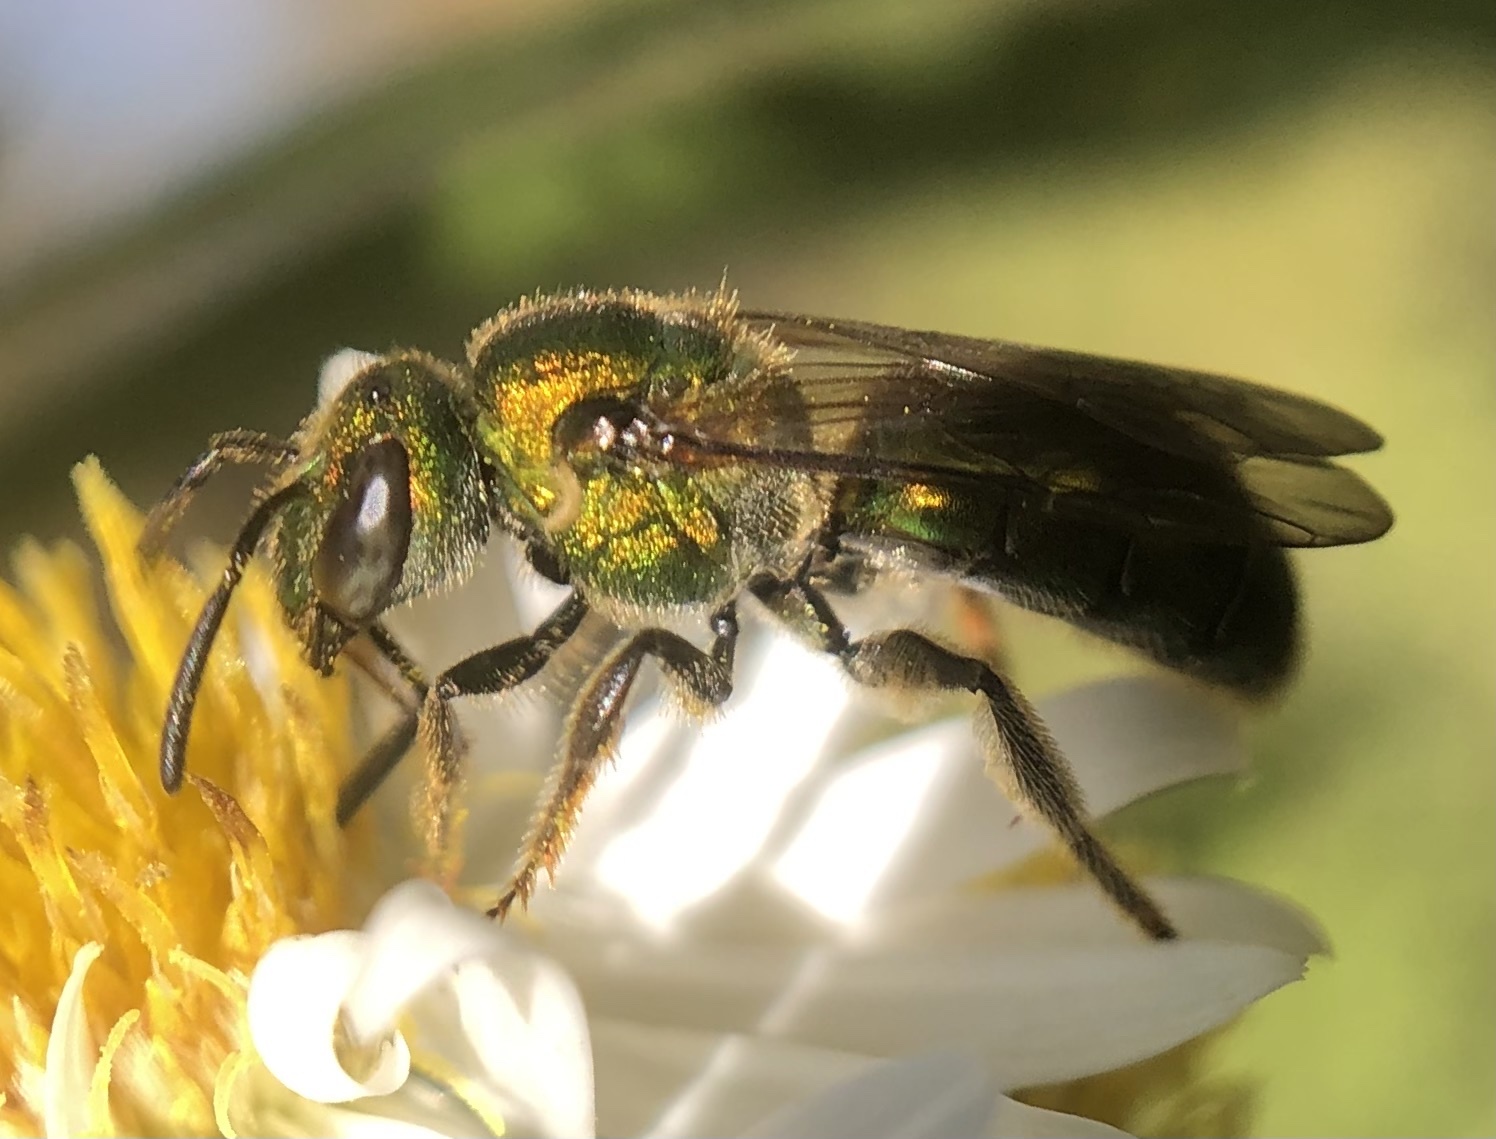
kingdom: Animalia
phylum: Arthropoda
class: Insecta
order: Hymenoptera
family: Halictidae
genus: Augochlora
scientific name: Augochlora pura
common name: Pure green sweat bee
